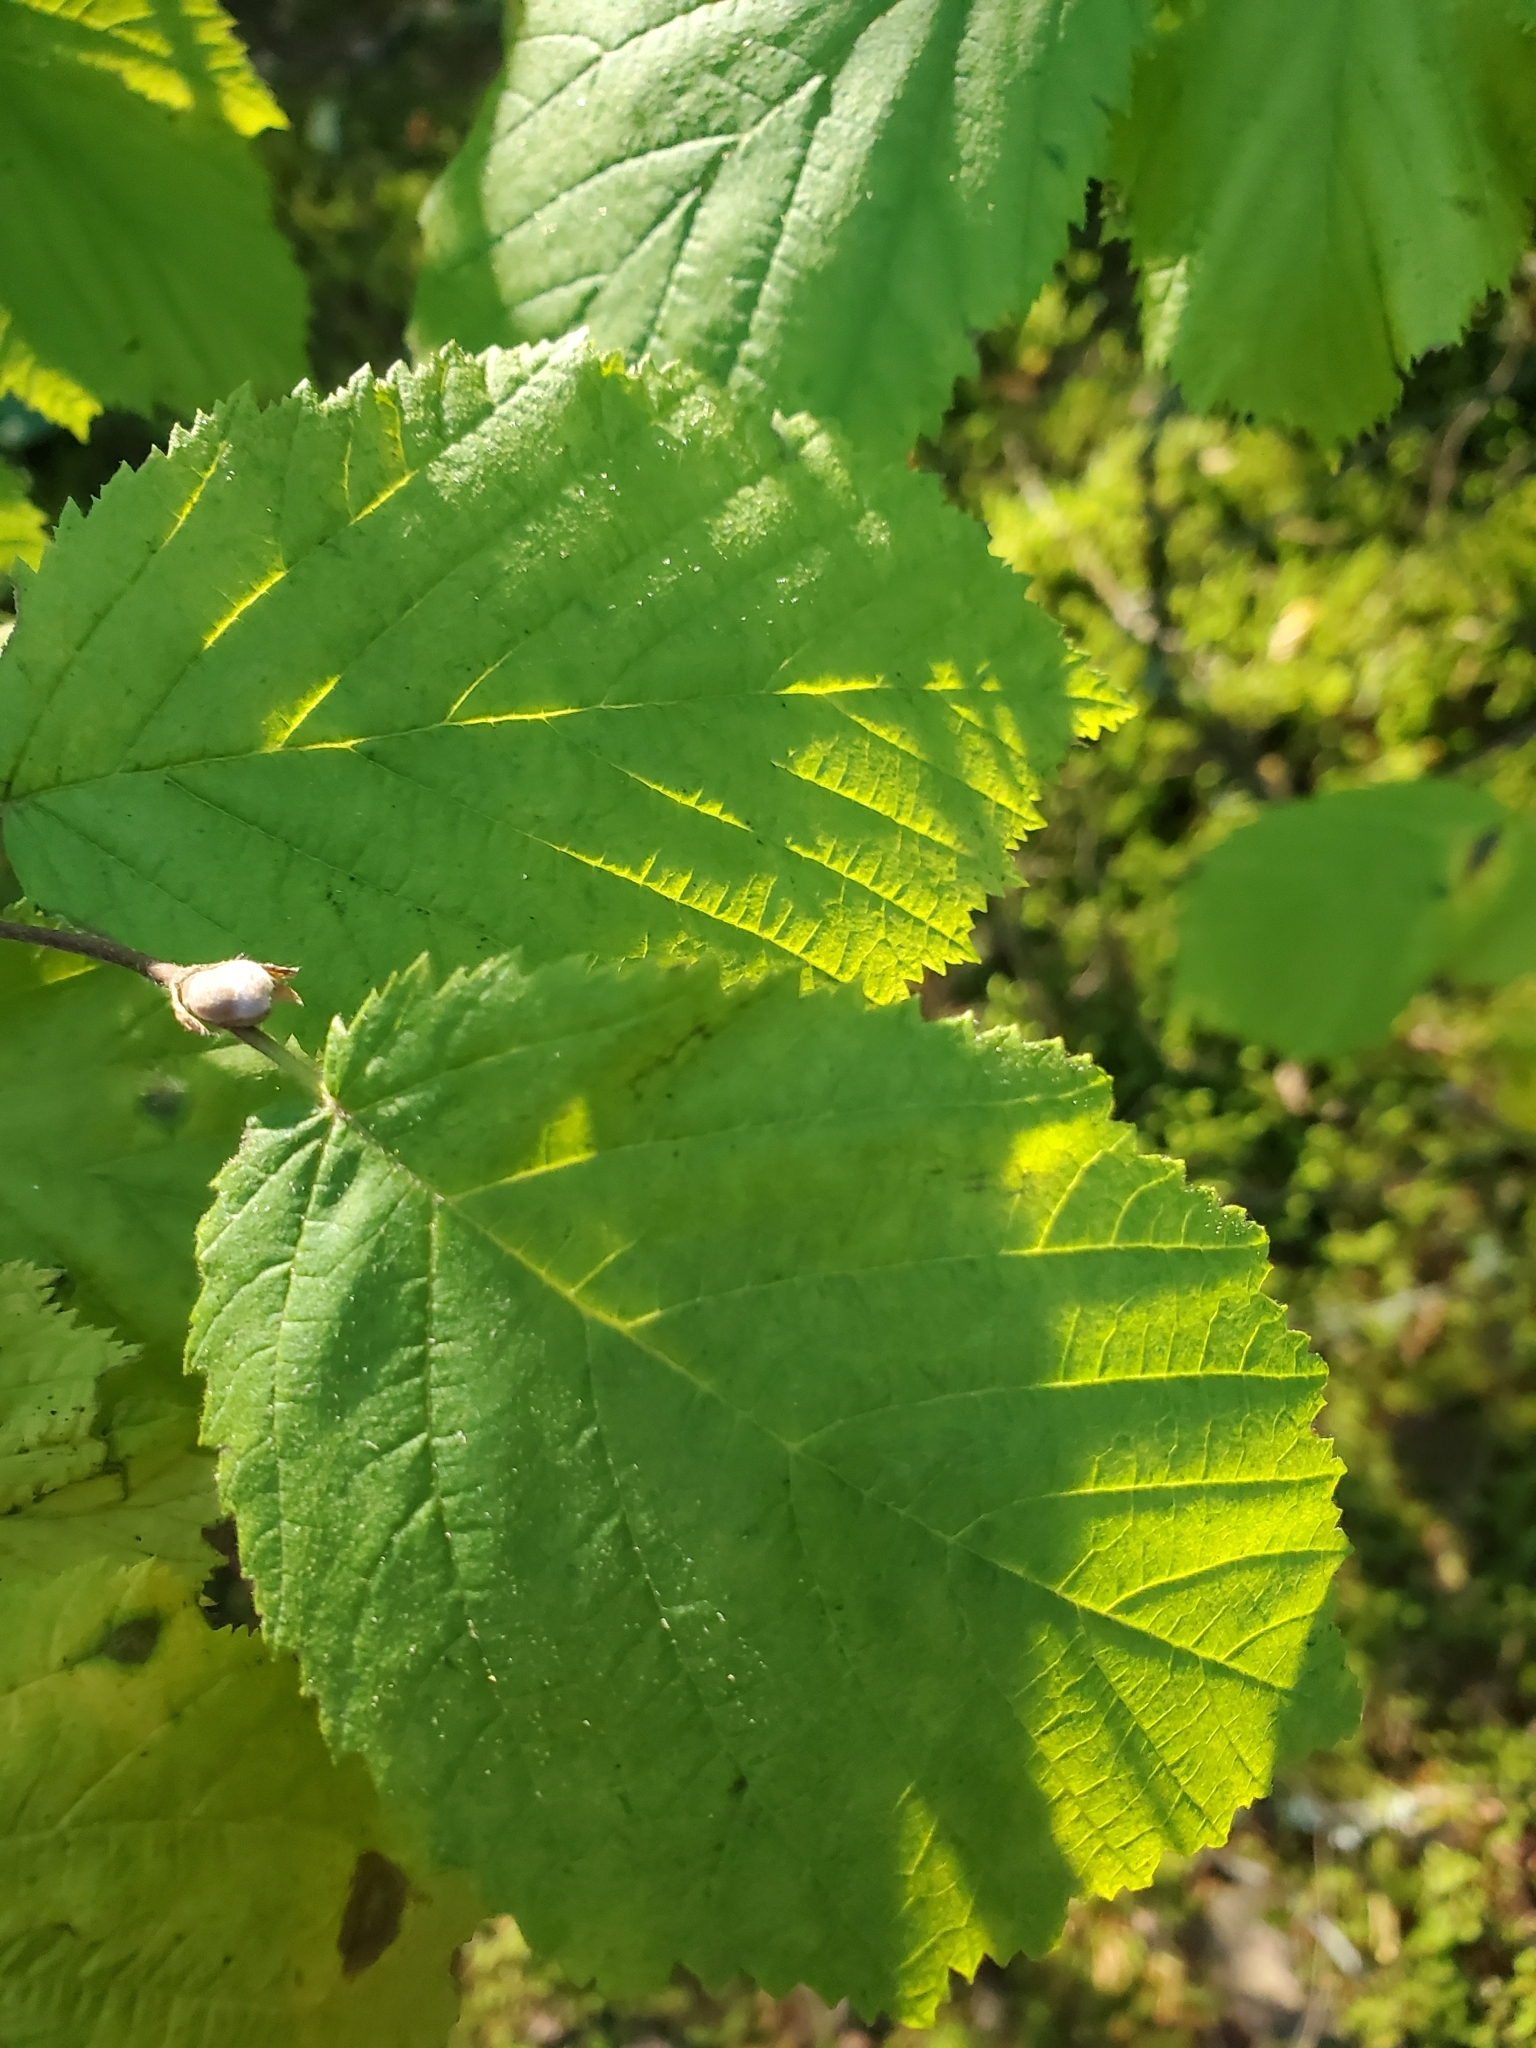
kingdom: Plantae
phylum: Tracheophyta
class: Magnoliopsida
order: Fagales
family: Betulaceae
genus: Corylus
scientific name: Corylus cornuta
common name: Beaked hazel
